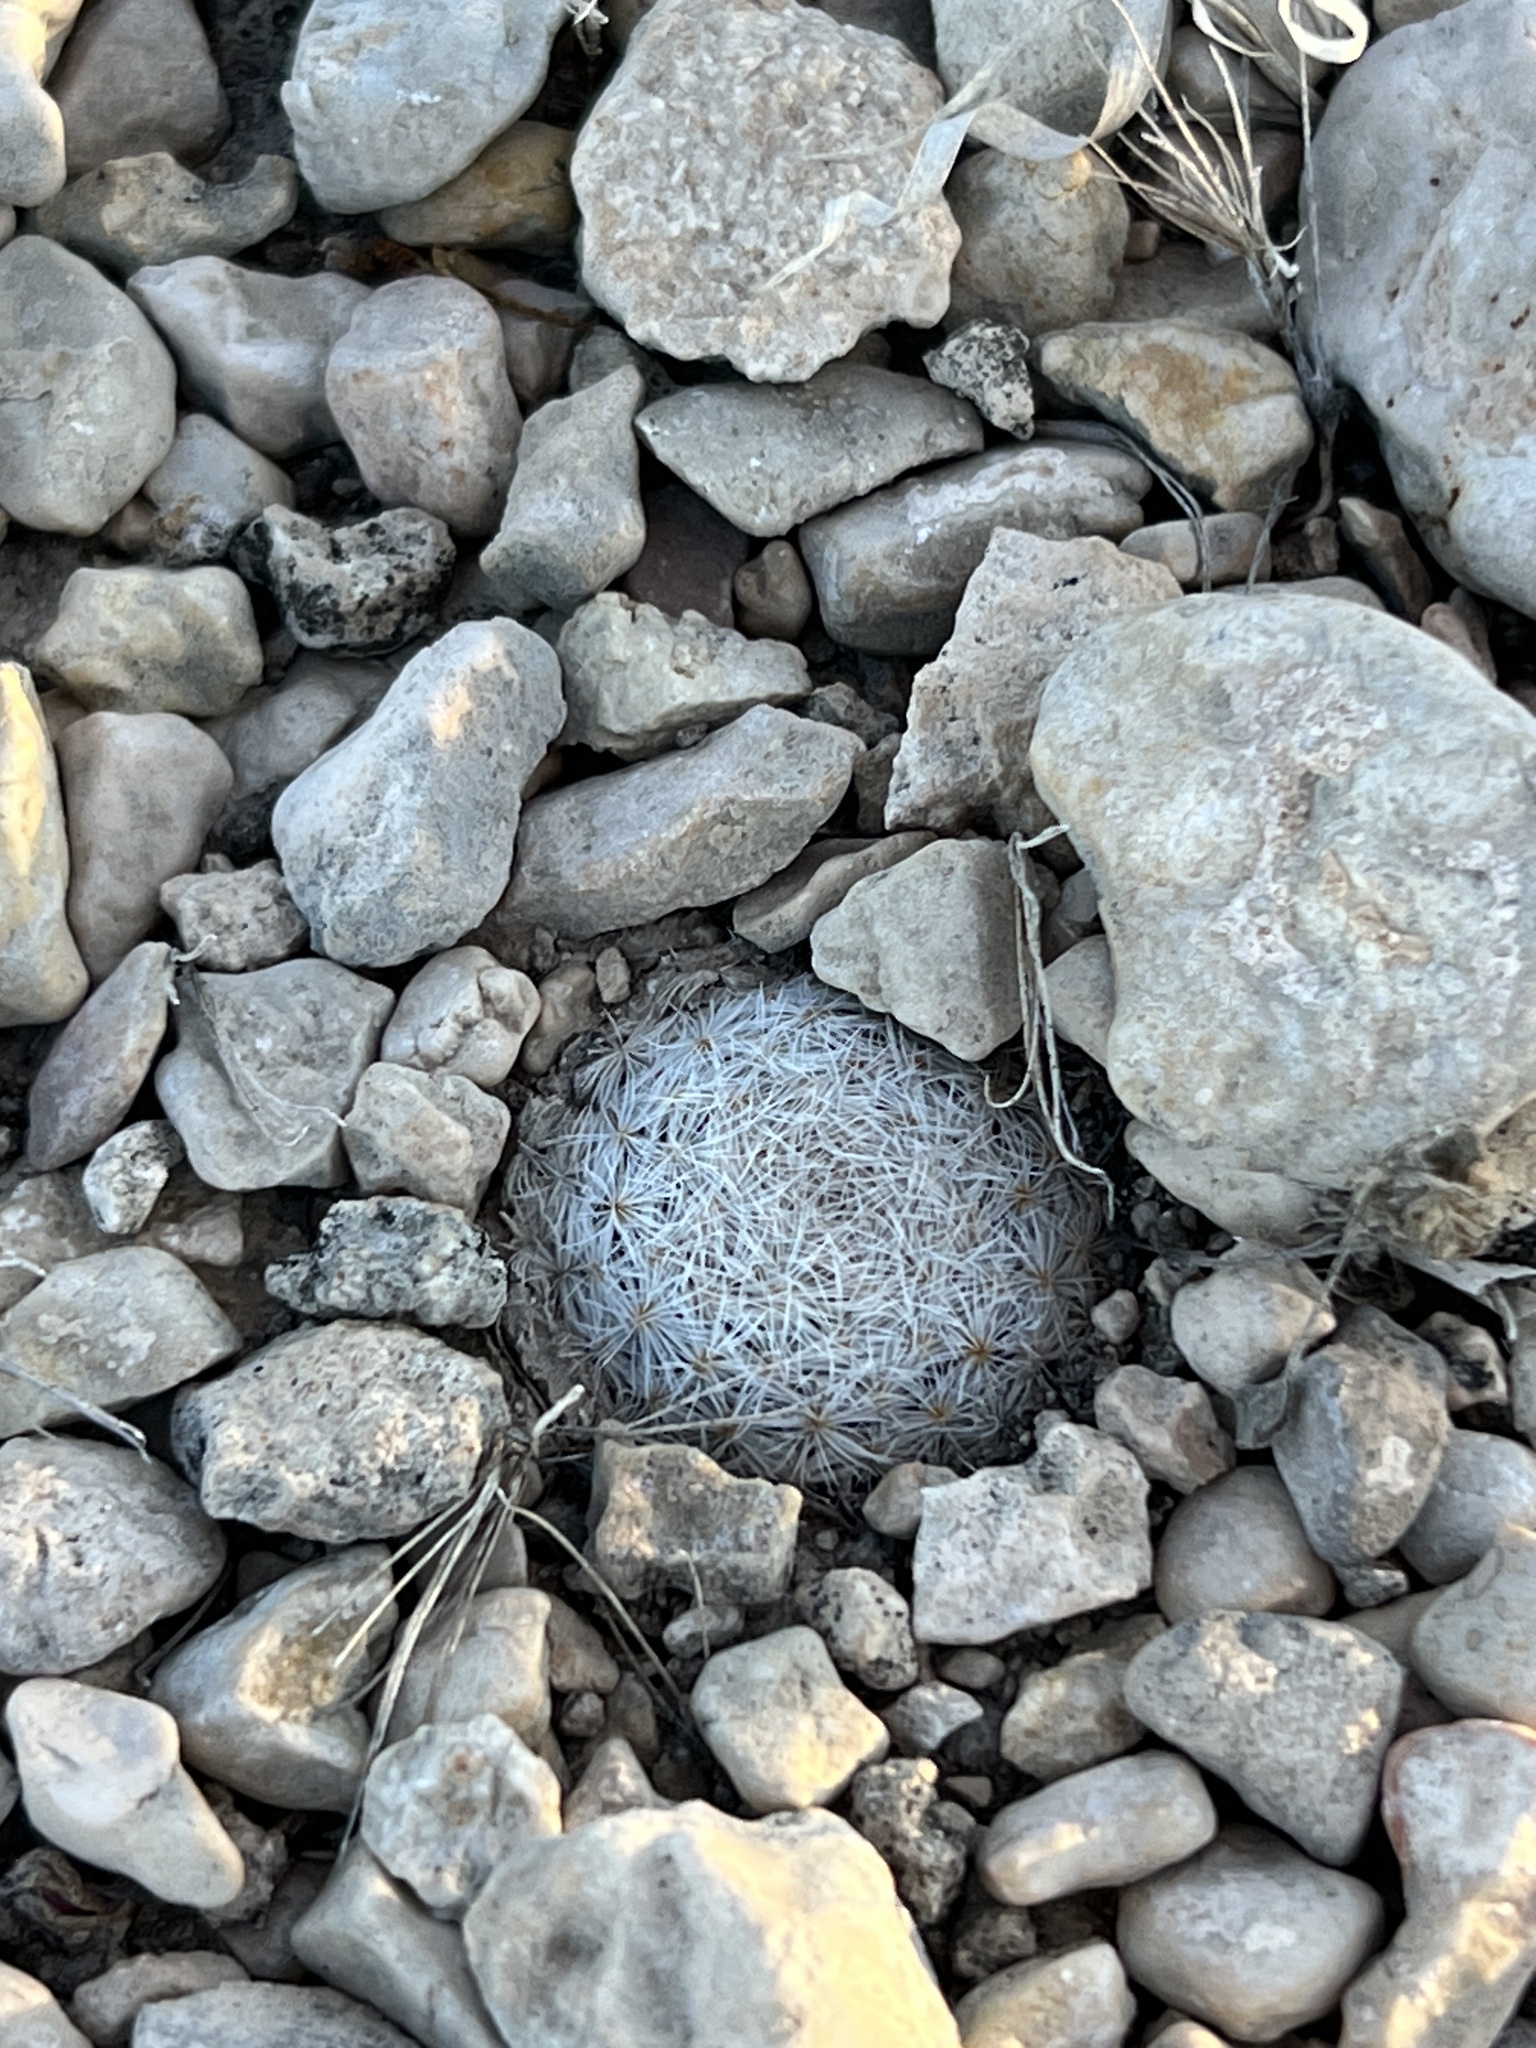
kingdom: Plantae
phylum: Tracheophyta
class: Magnoliopsida
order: Caryophyllales
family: Cactaceae
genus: Mammillaria
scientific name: Mammillaria lasiacantha
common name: Lace-spine nipple cactus
